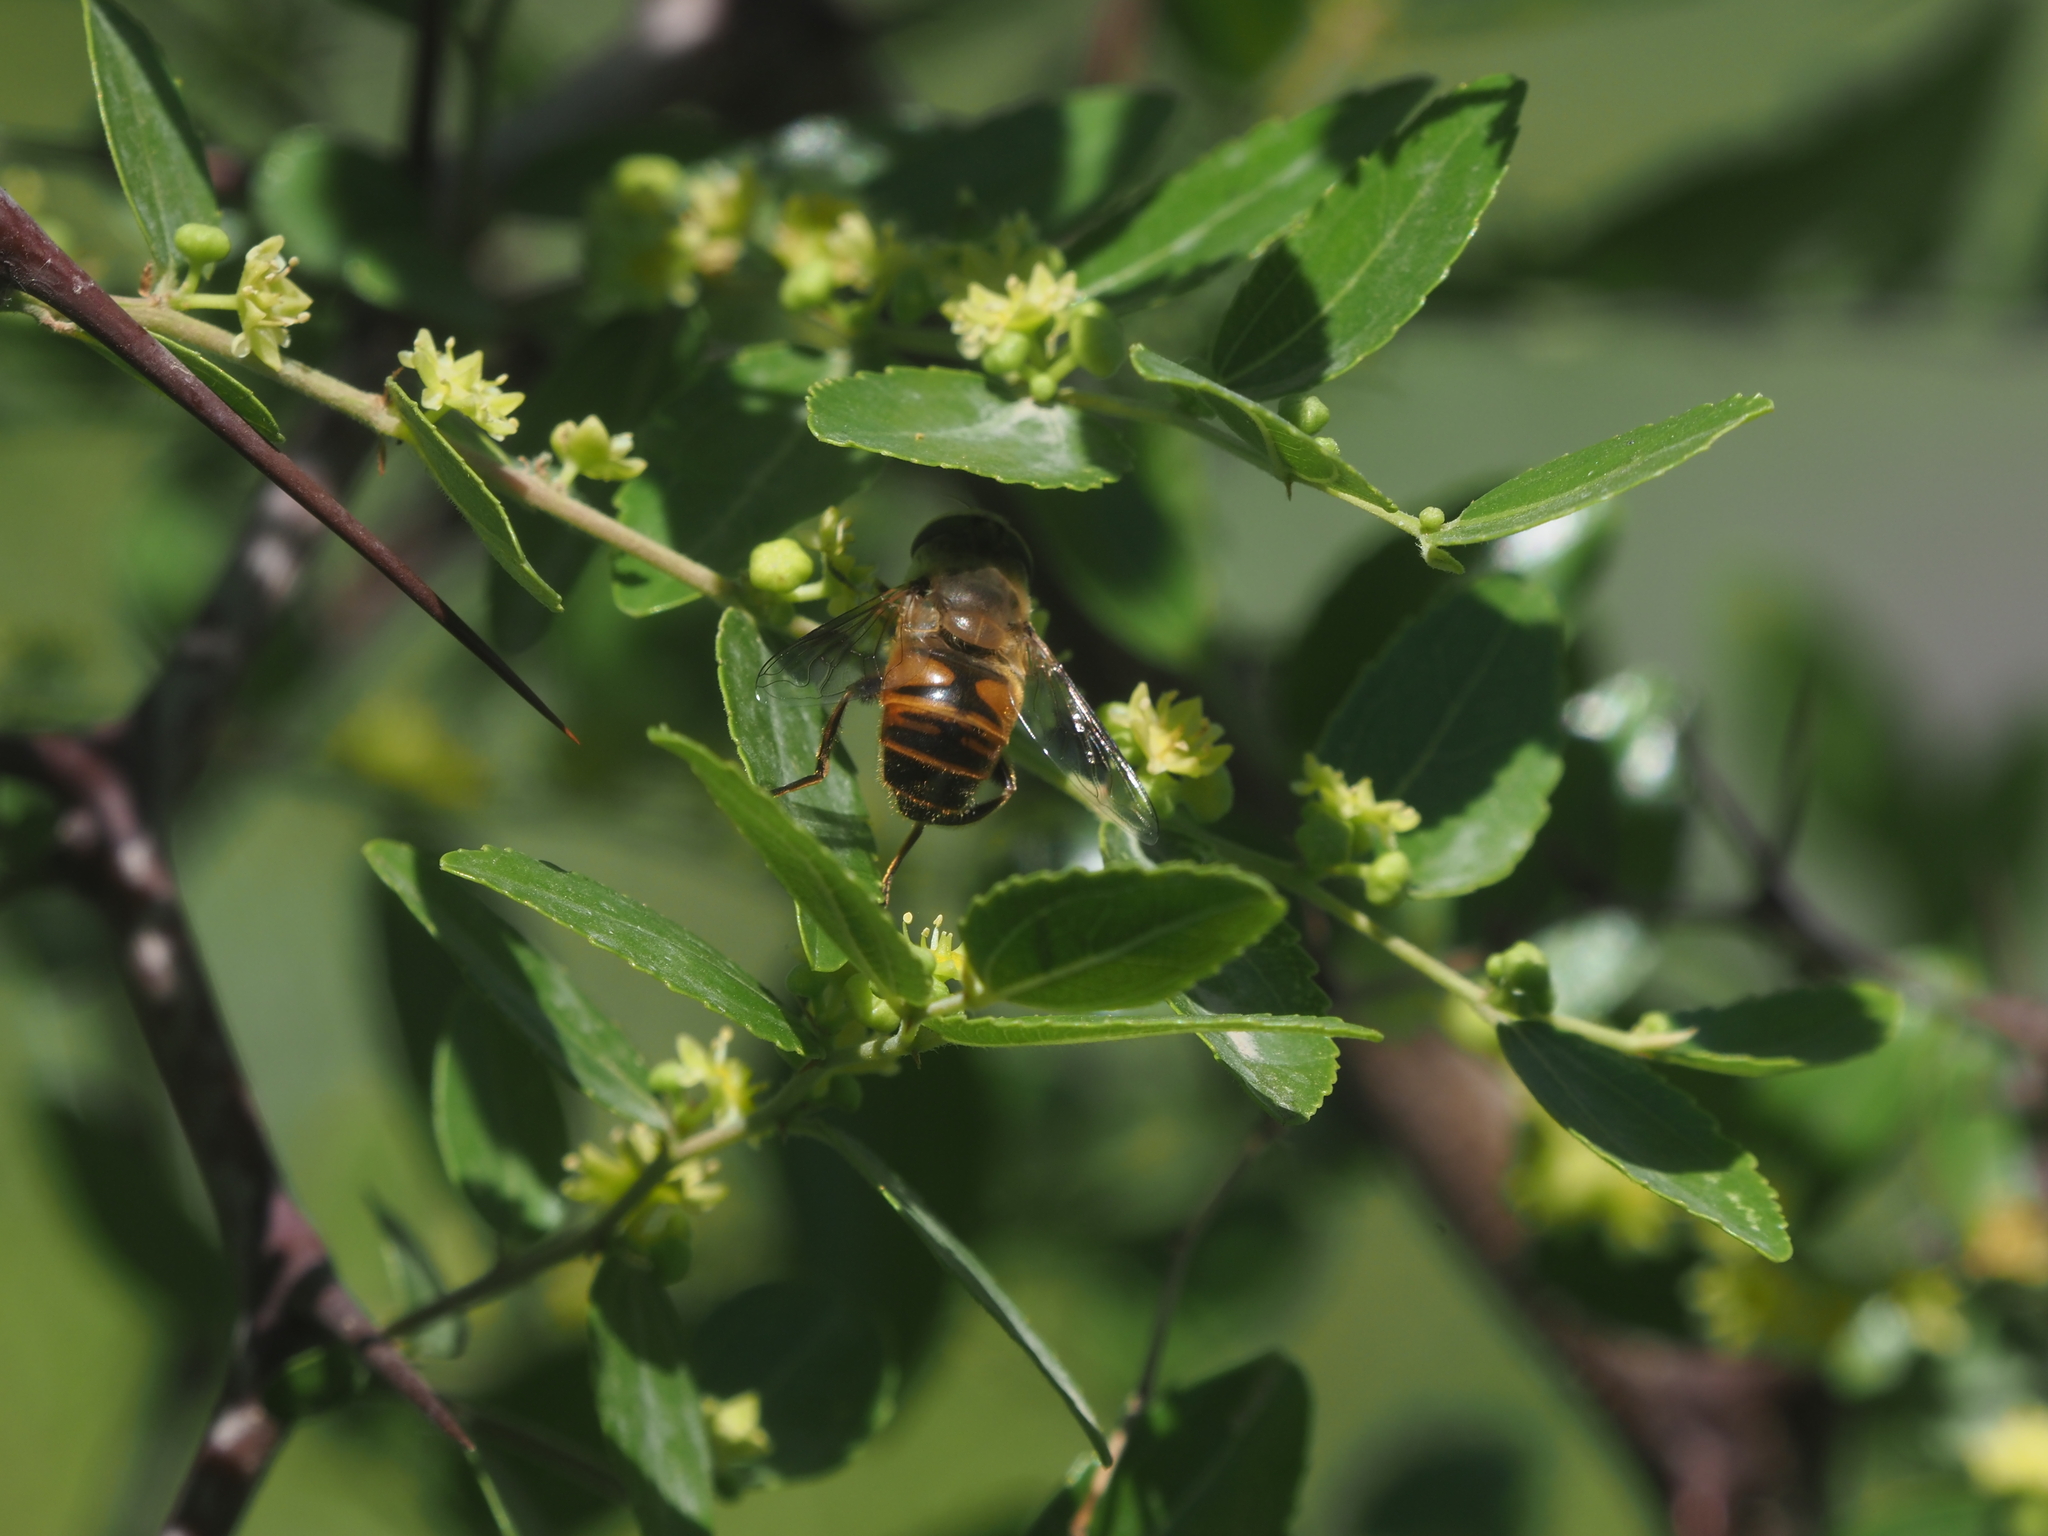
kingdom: Animalia
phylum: Arthropoda
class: Insecta
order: Diptera
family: Syrphidae
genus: Eristalis
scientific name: Eristalis tenax
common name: Drone fly
